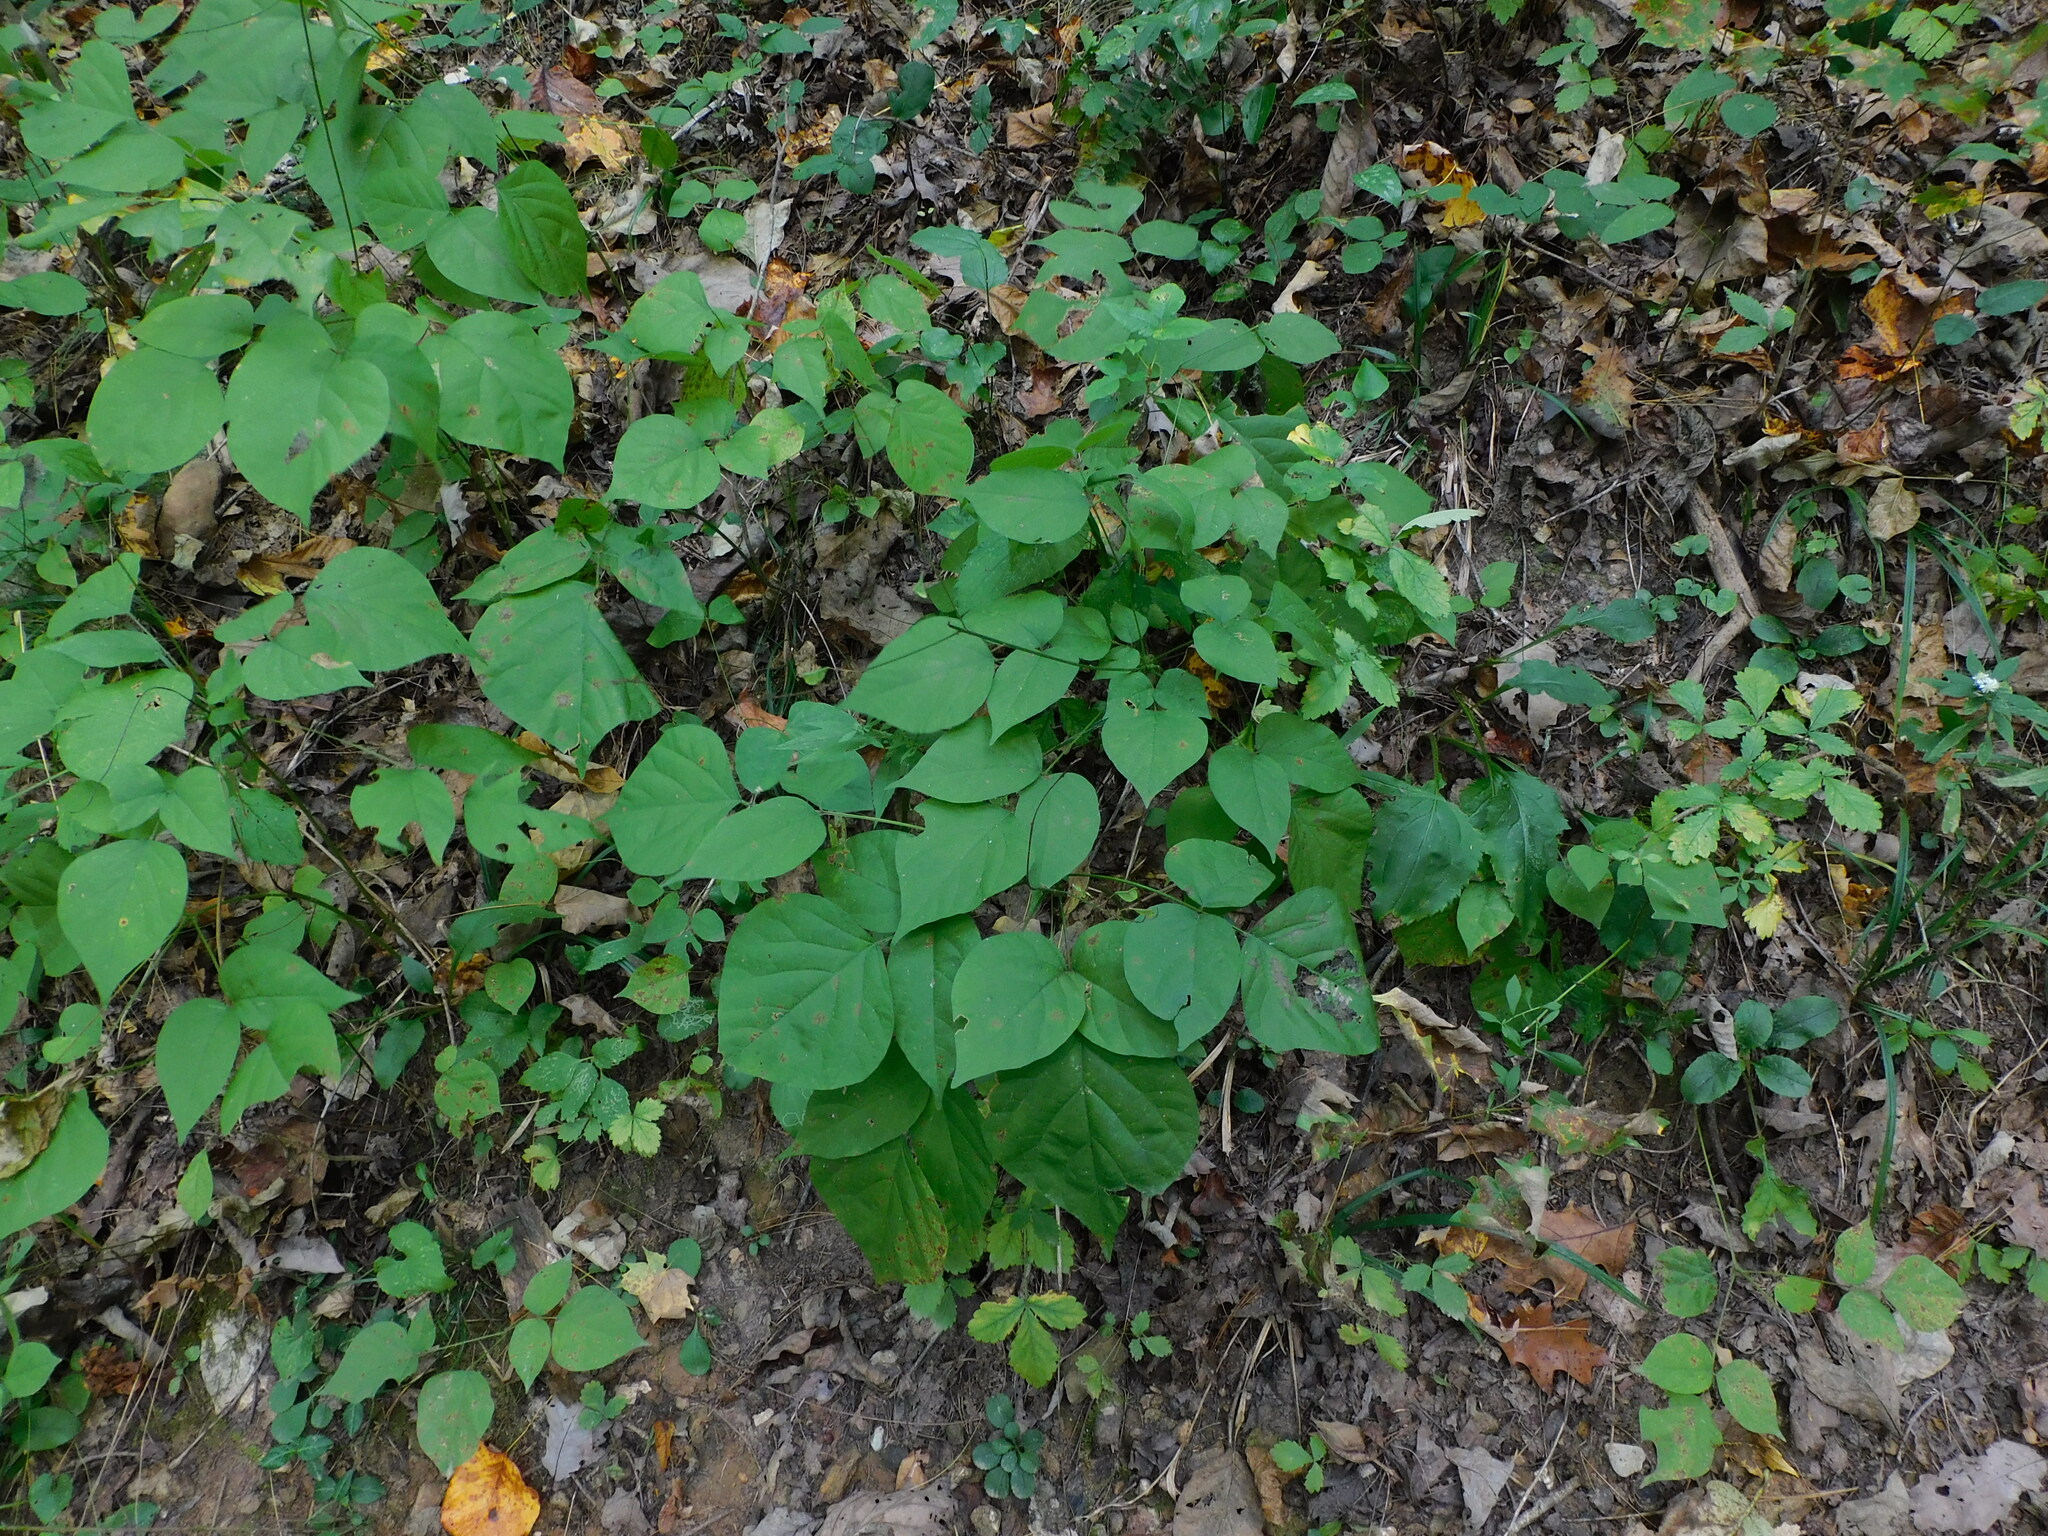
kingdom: Plantae
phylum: Tracheophyta
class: Magnoliopsida
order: Fabales
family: Fabaceae
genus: Hylodesmum
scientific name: Hylodesmum glutinosum
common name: Clustered-leaved tick-trefoil
